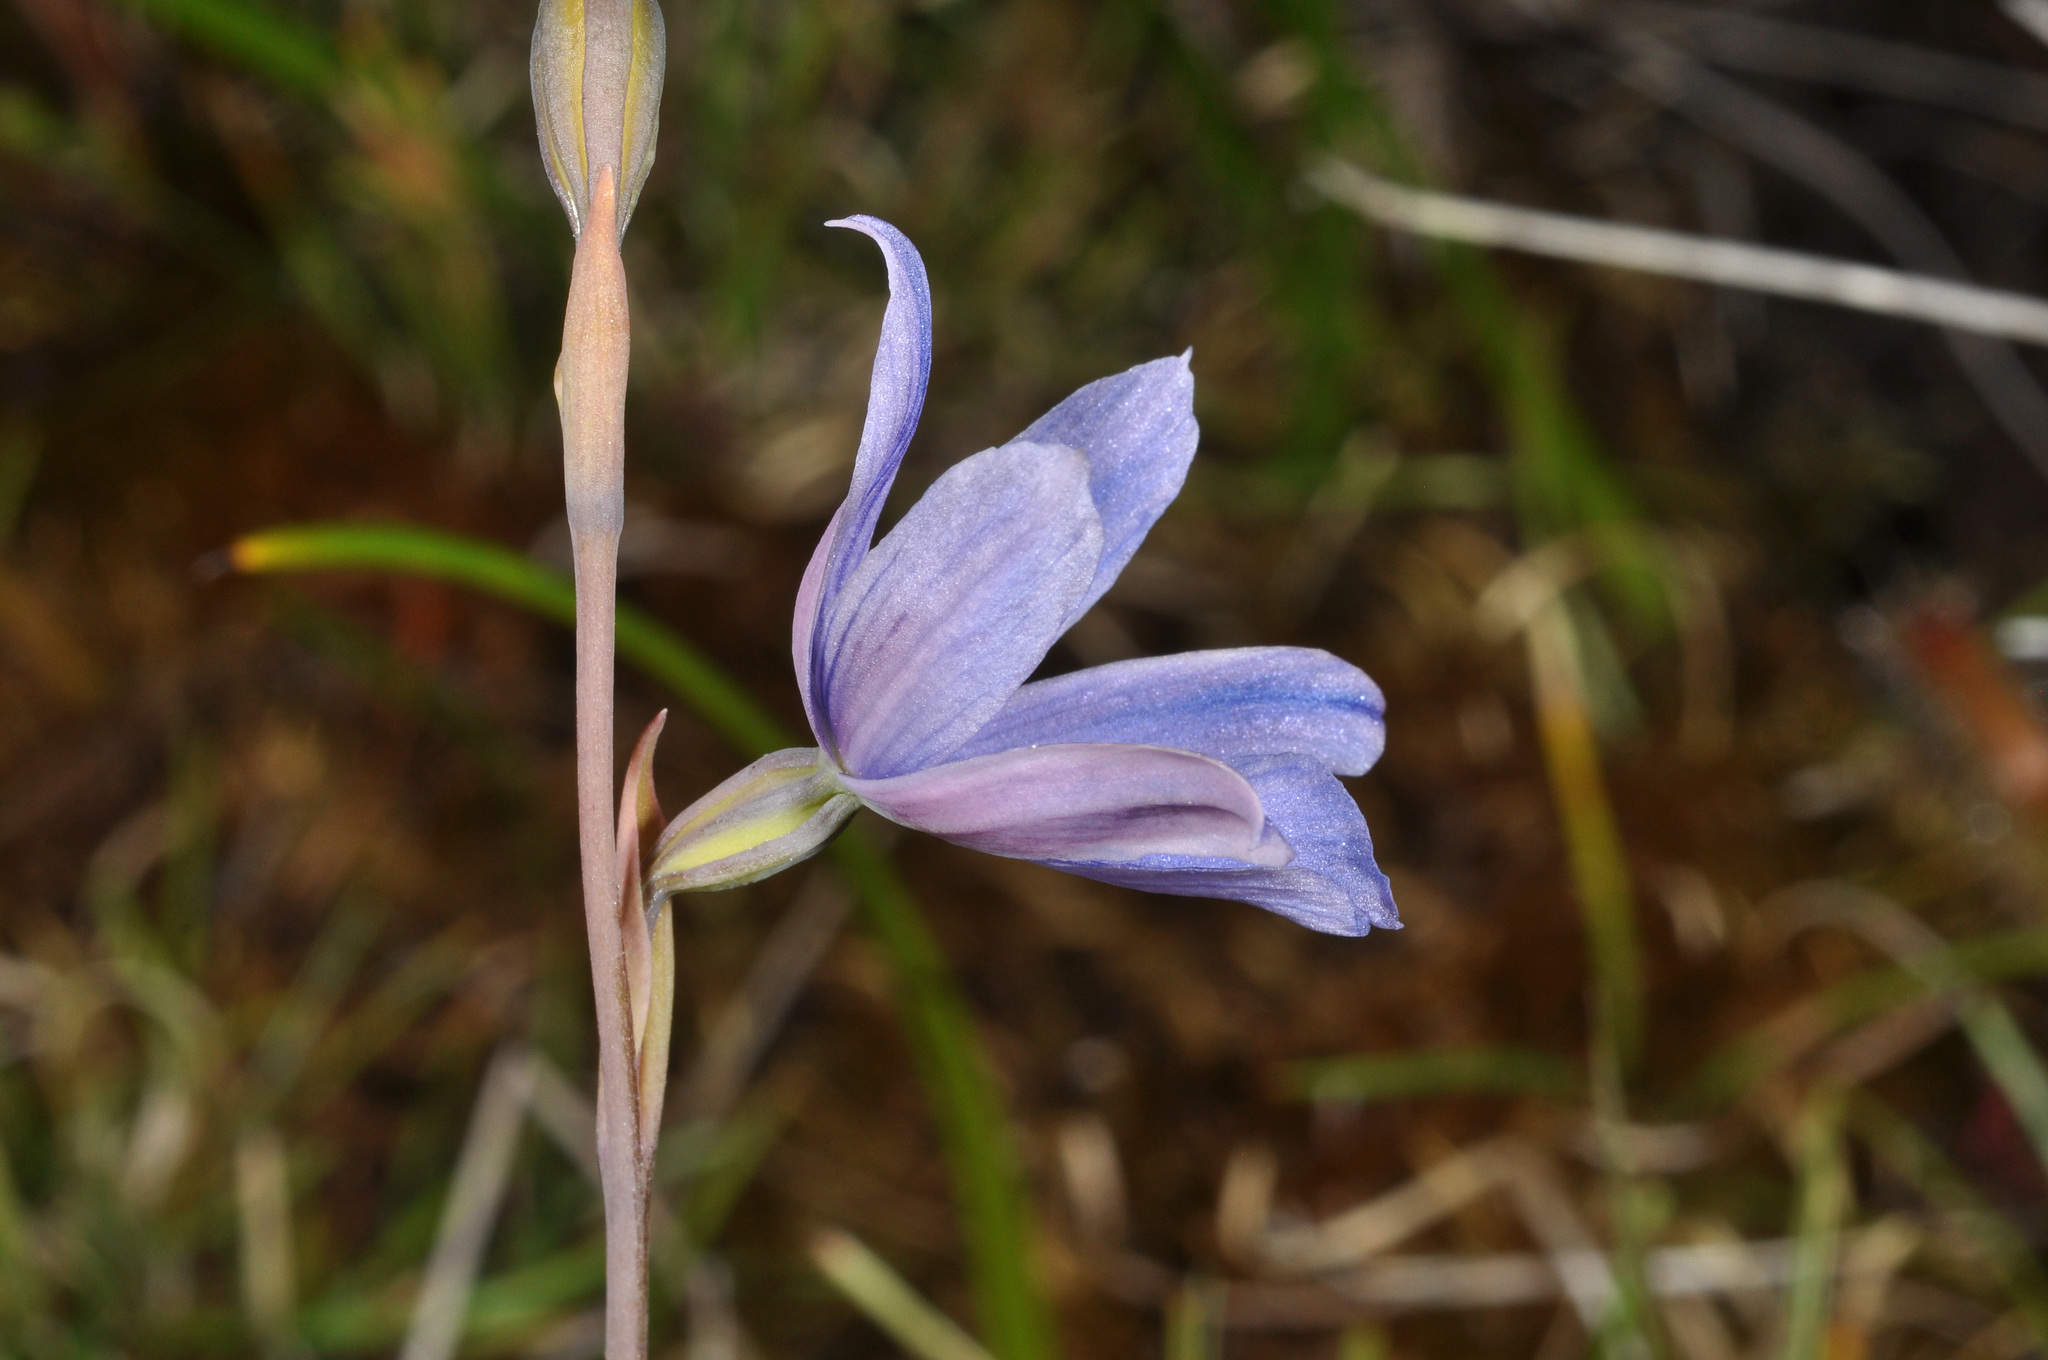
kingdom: Plantae
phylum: Tracheophyta
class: Liliopsida
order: Asparagales
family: Orchidaceae
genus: Thelymitra
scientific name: Thelymitra cyanea
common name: Blue sun-orchid
